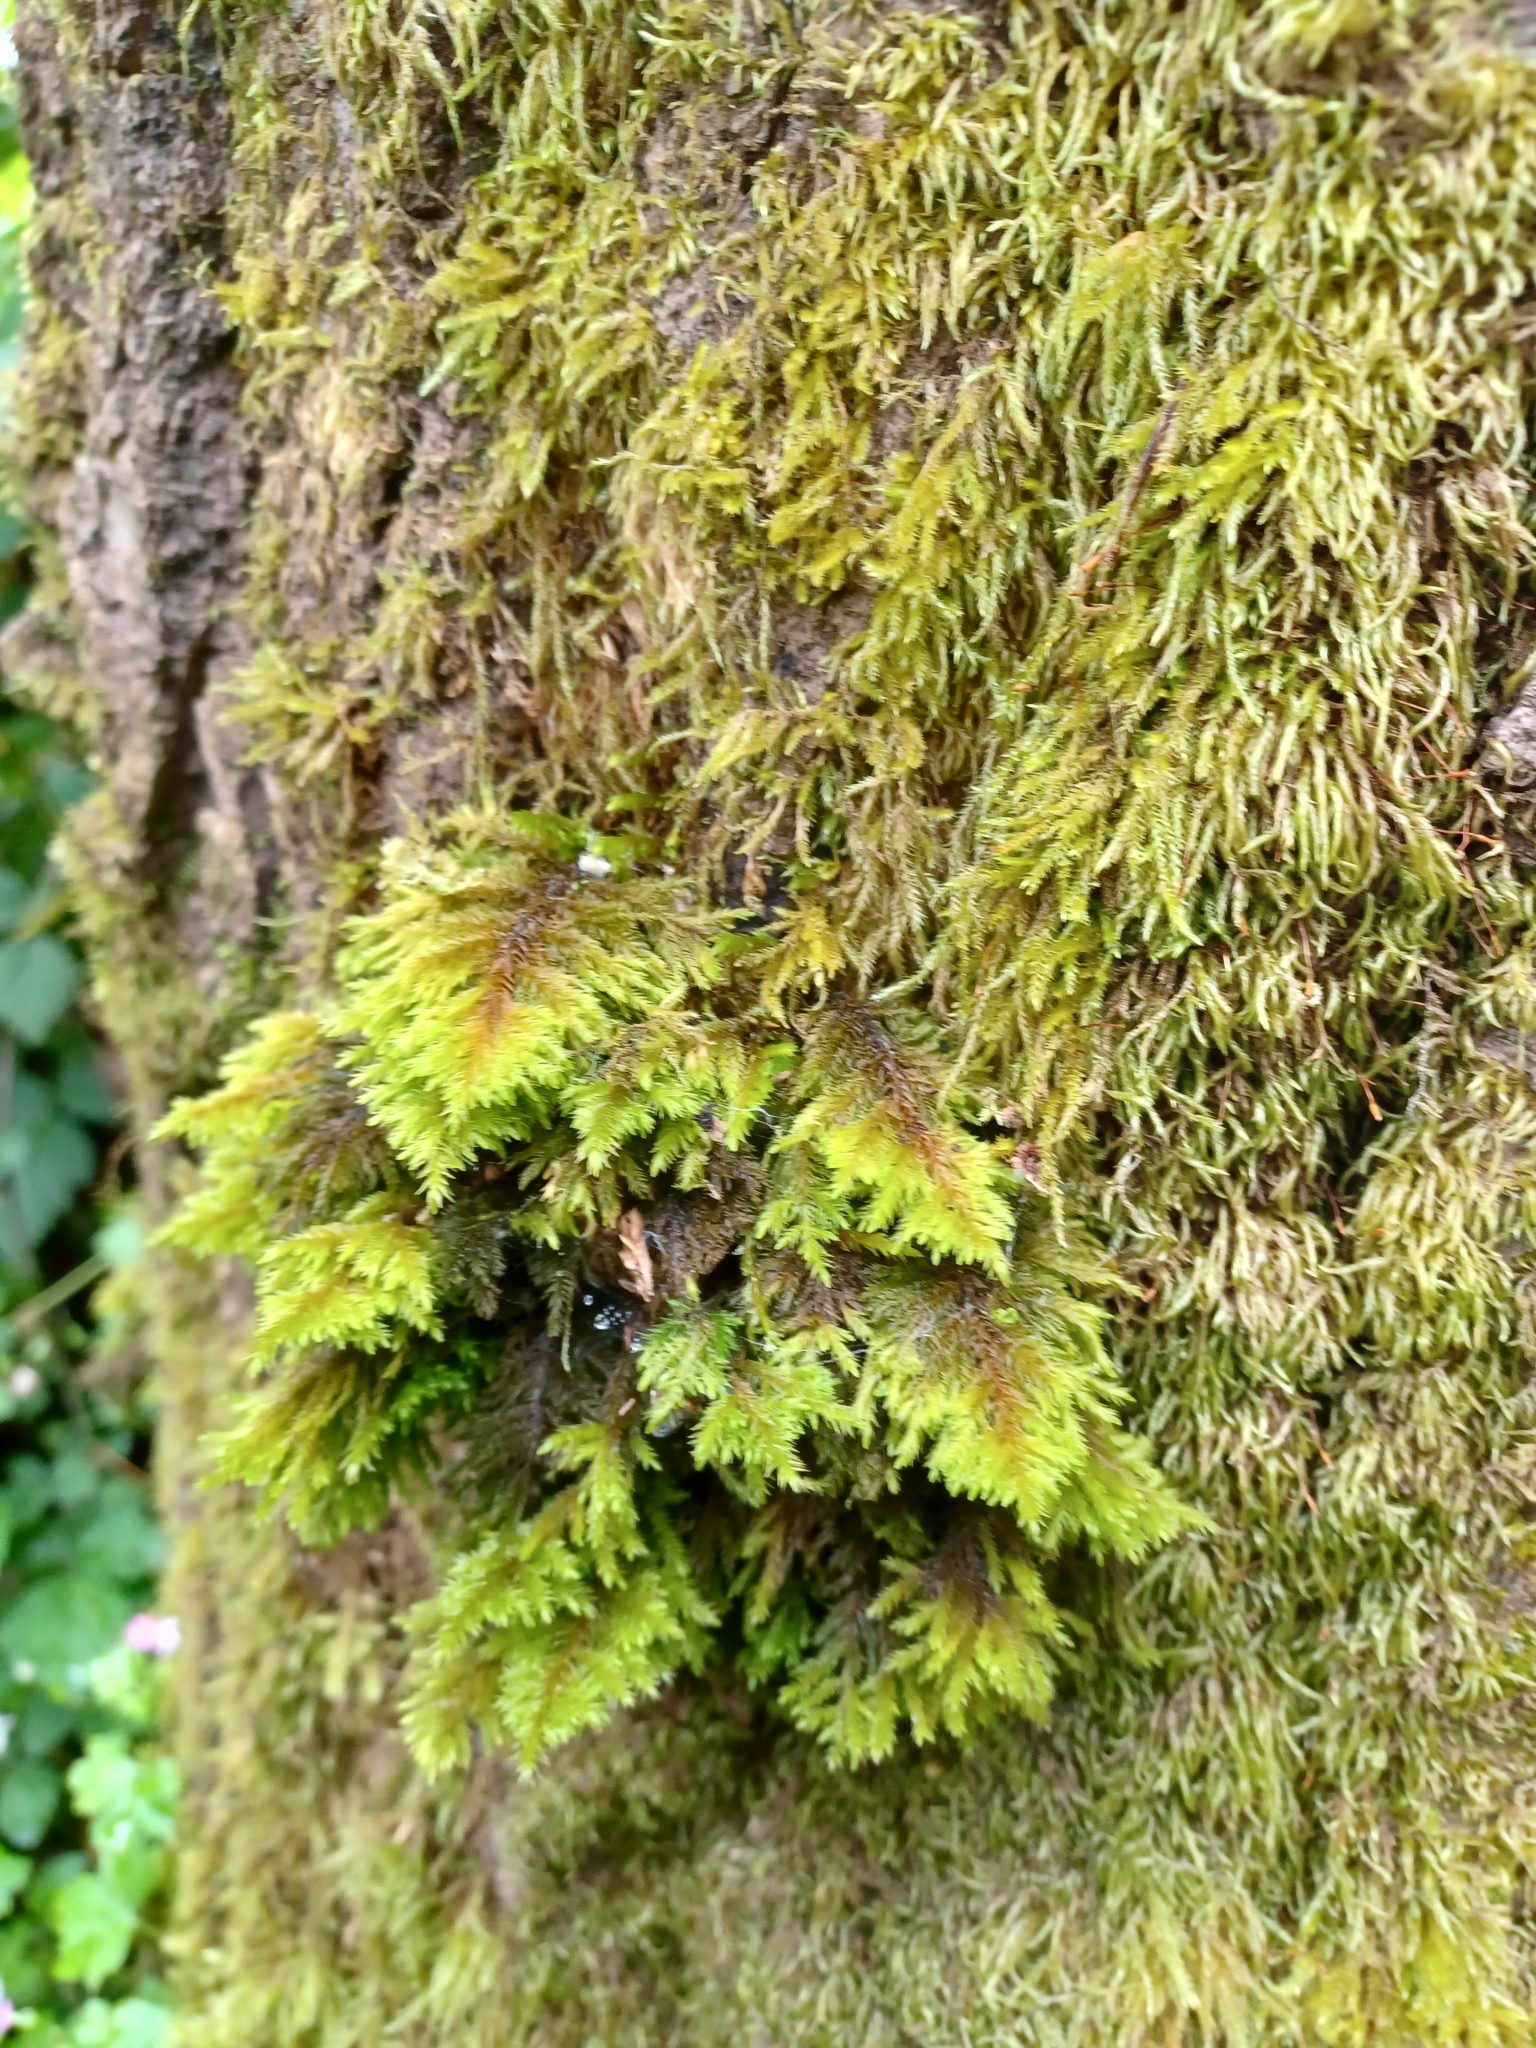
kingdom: Plantae
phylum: Bryophyta
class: Bryopsida
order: Hypnales
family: Cryphaeaceae
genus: Dendroalsia
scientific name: Dendroalsia abietina
